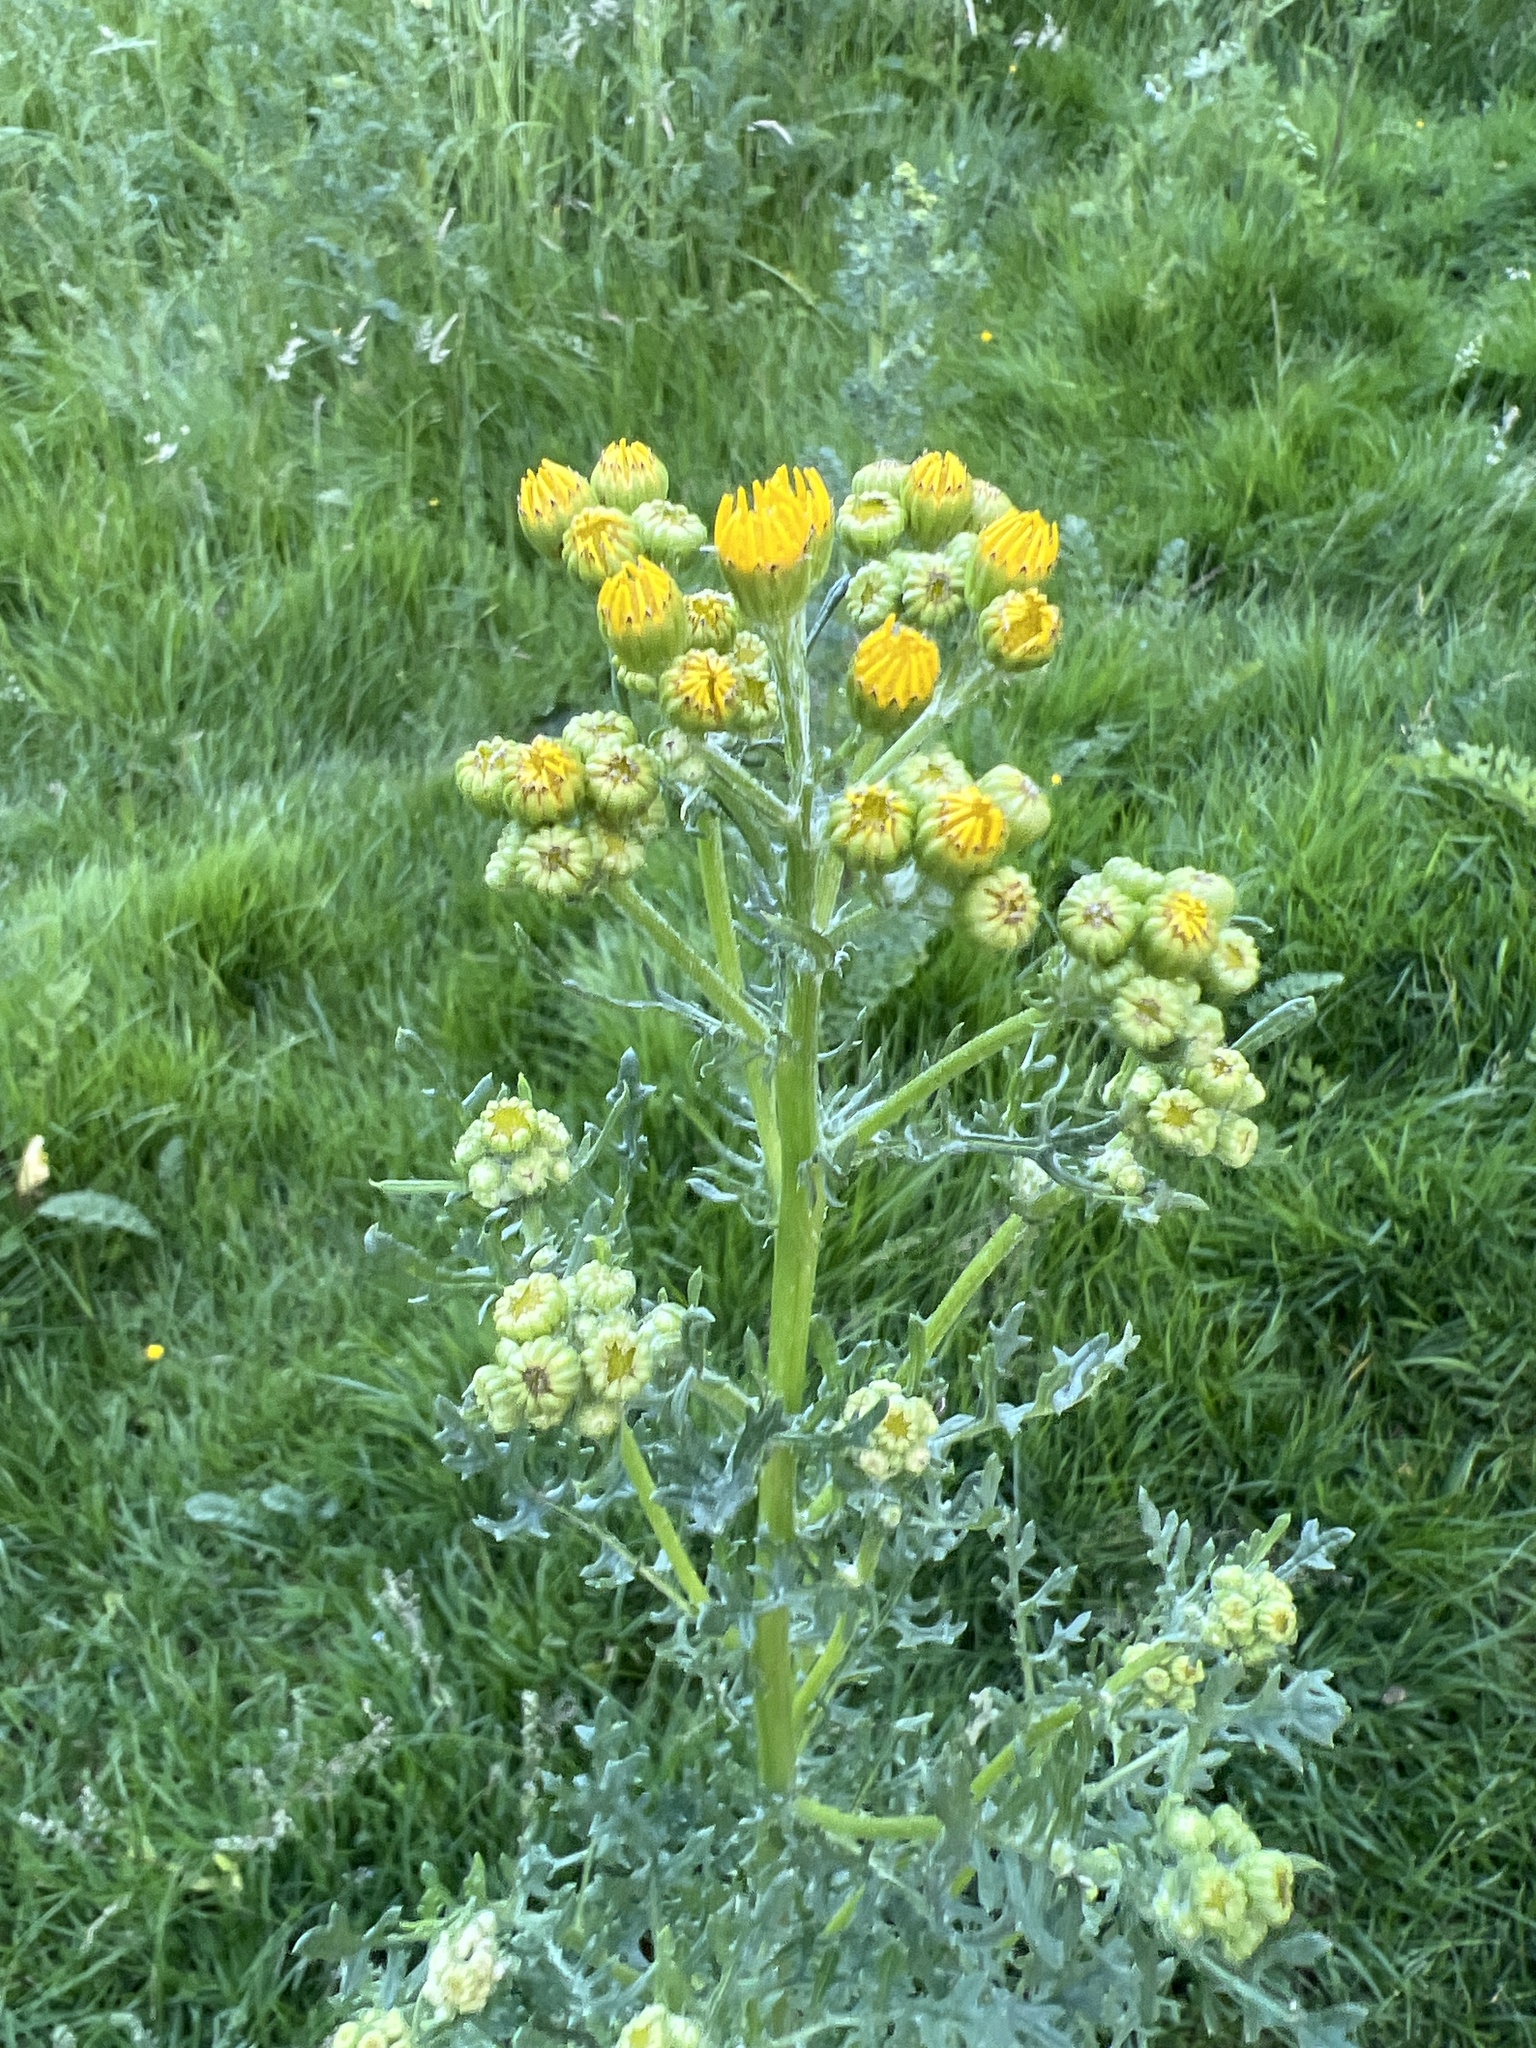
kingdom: Plantae
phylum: Tracheophyta
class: Magnoliopsida
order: Asterales
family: Asteraceae
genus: Jacobaea
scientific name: Jacobaea vulgaris
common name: Stinking willie
